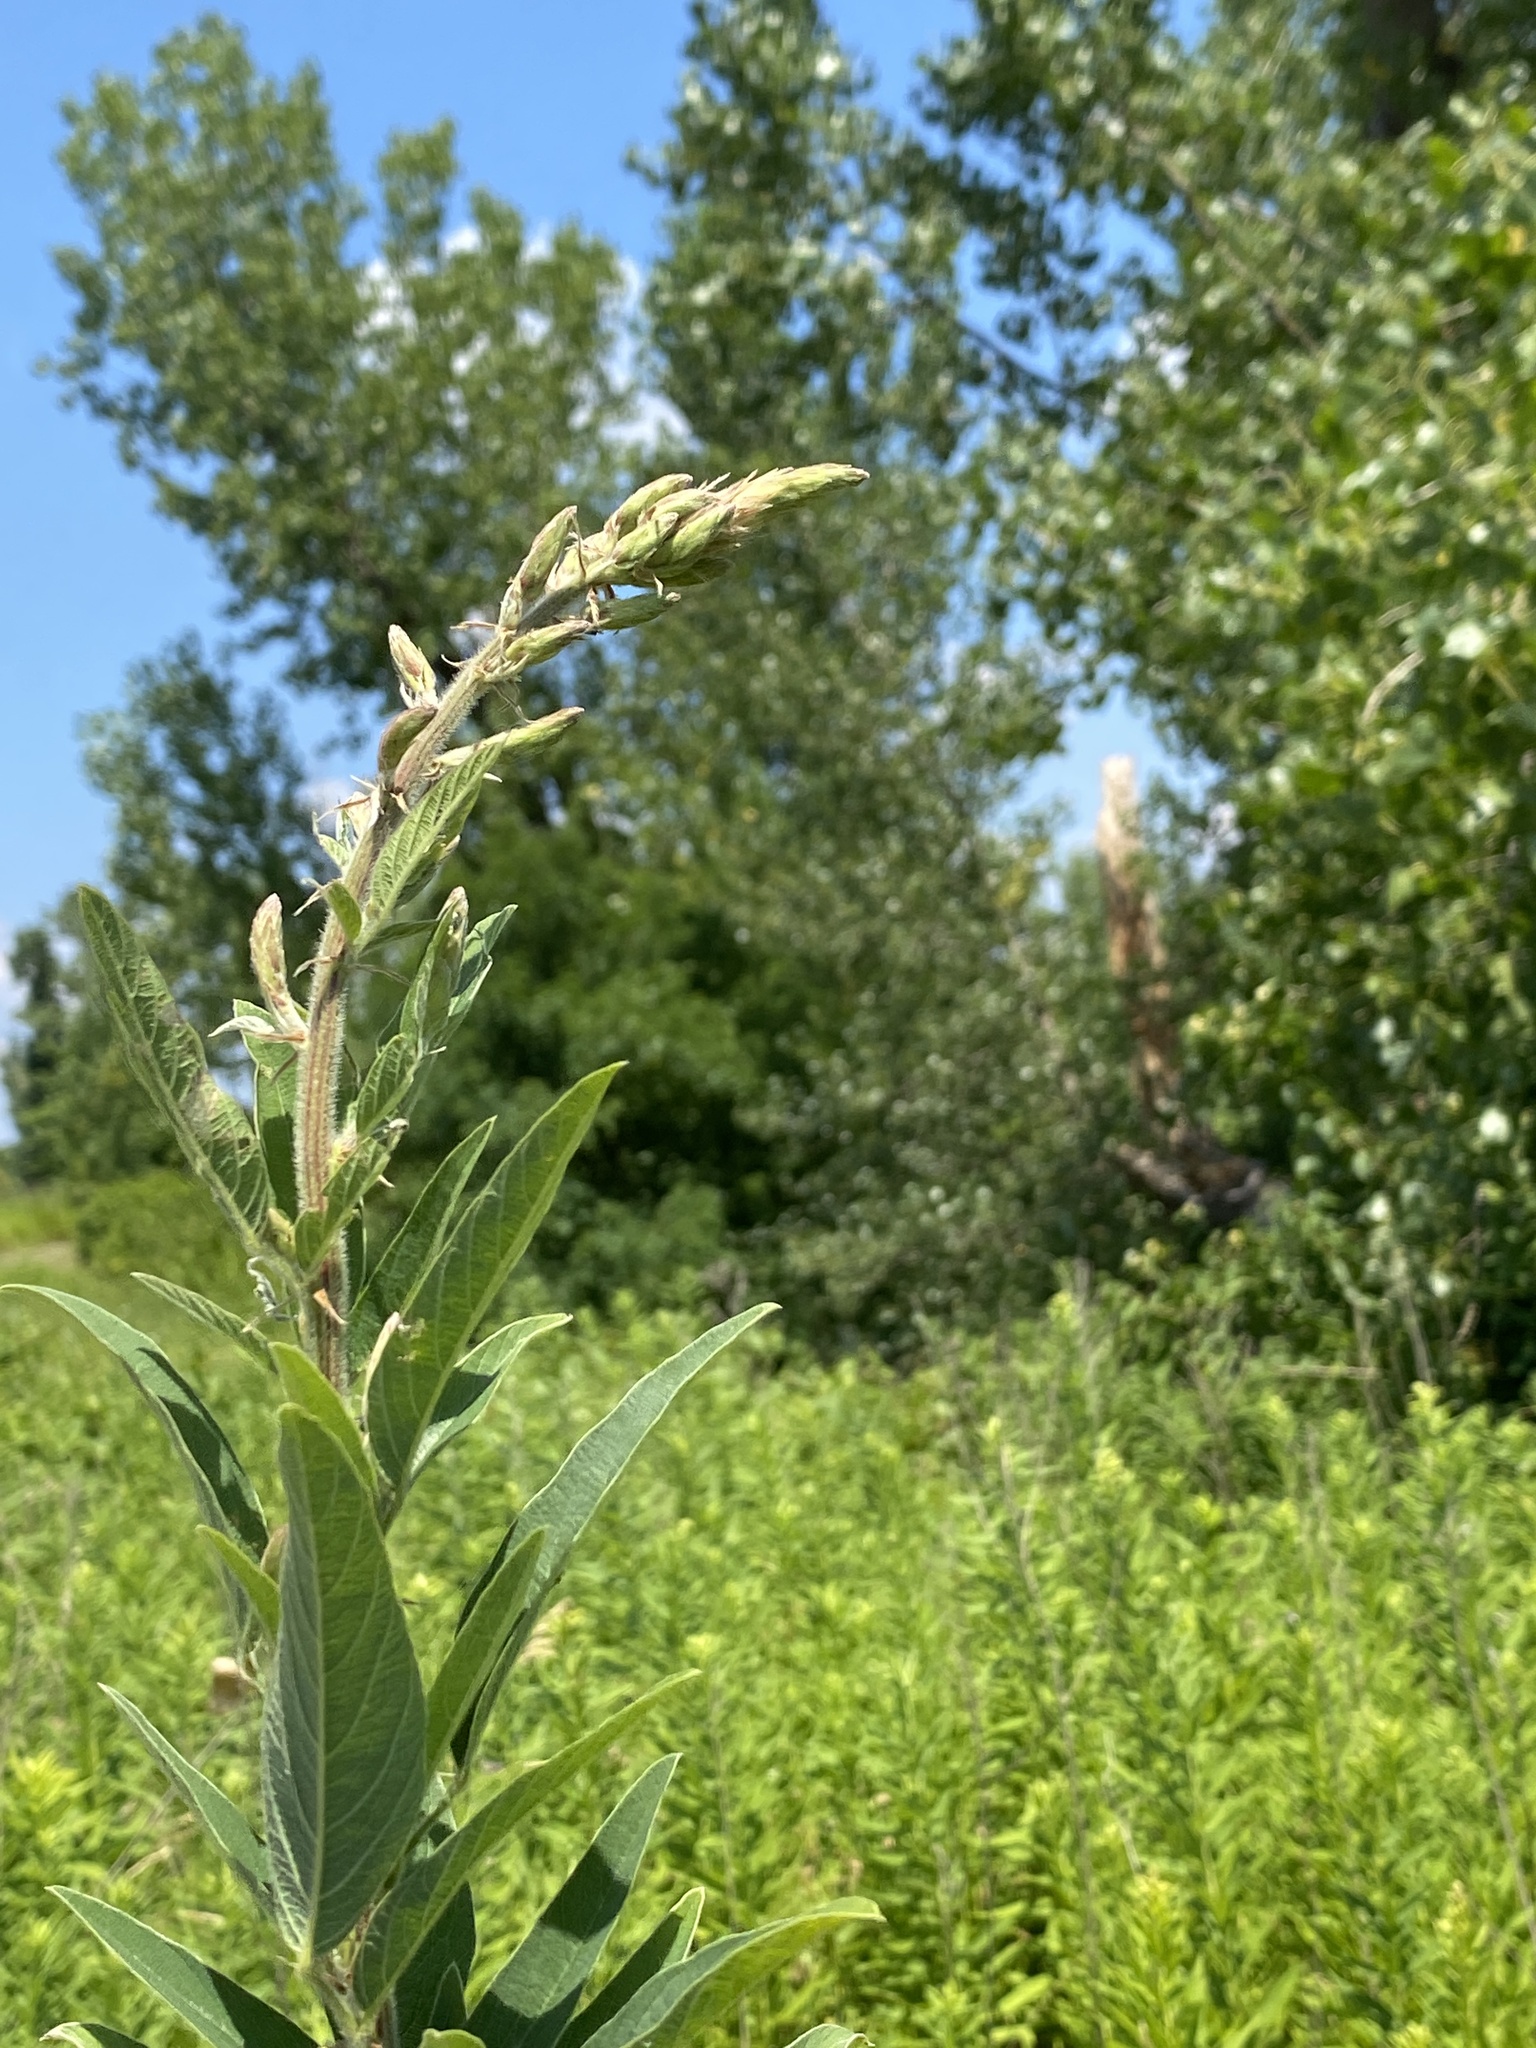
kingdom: Plantae
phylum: Tracheophyta
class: Magnoliopsida
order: Fabales
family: Fabaceae
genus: Desmodium
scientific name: Desmodium canadense
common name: Canada tick-trefoil
